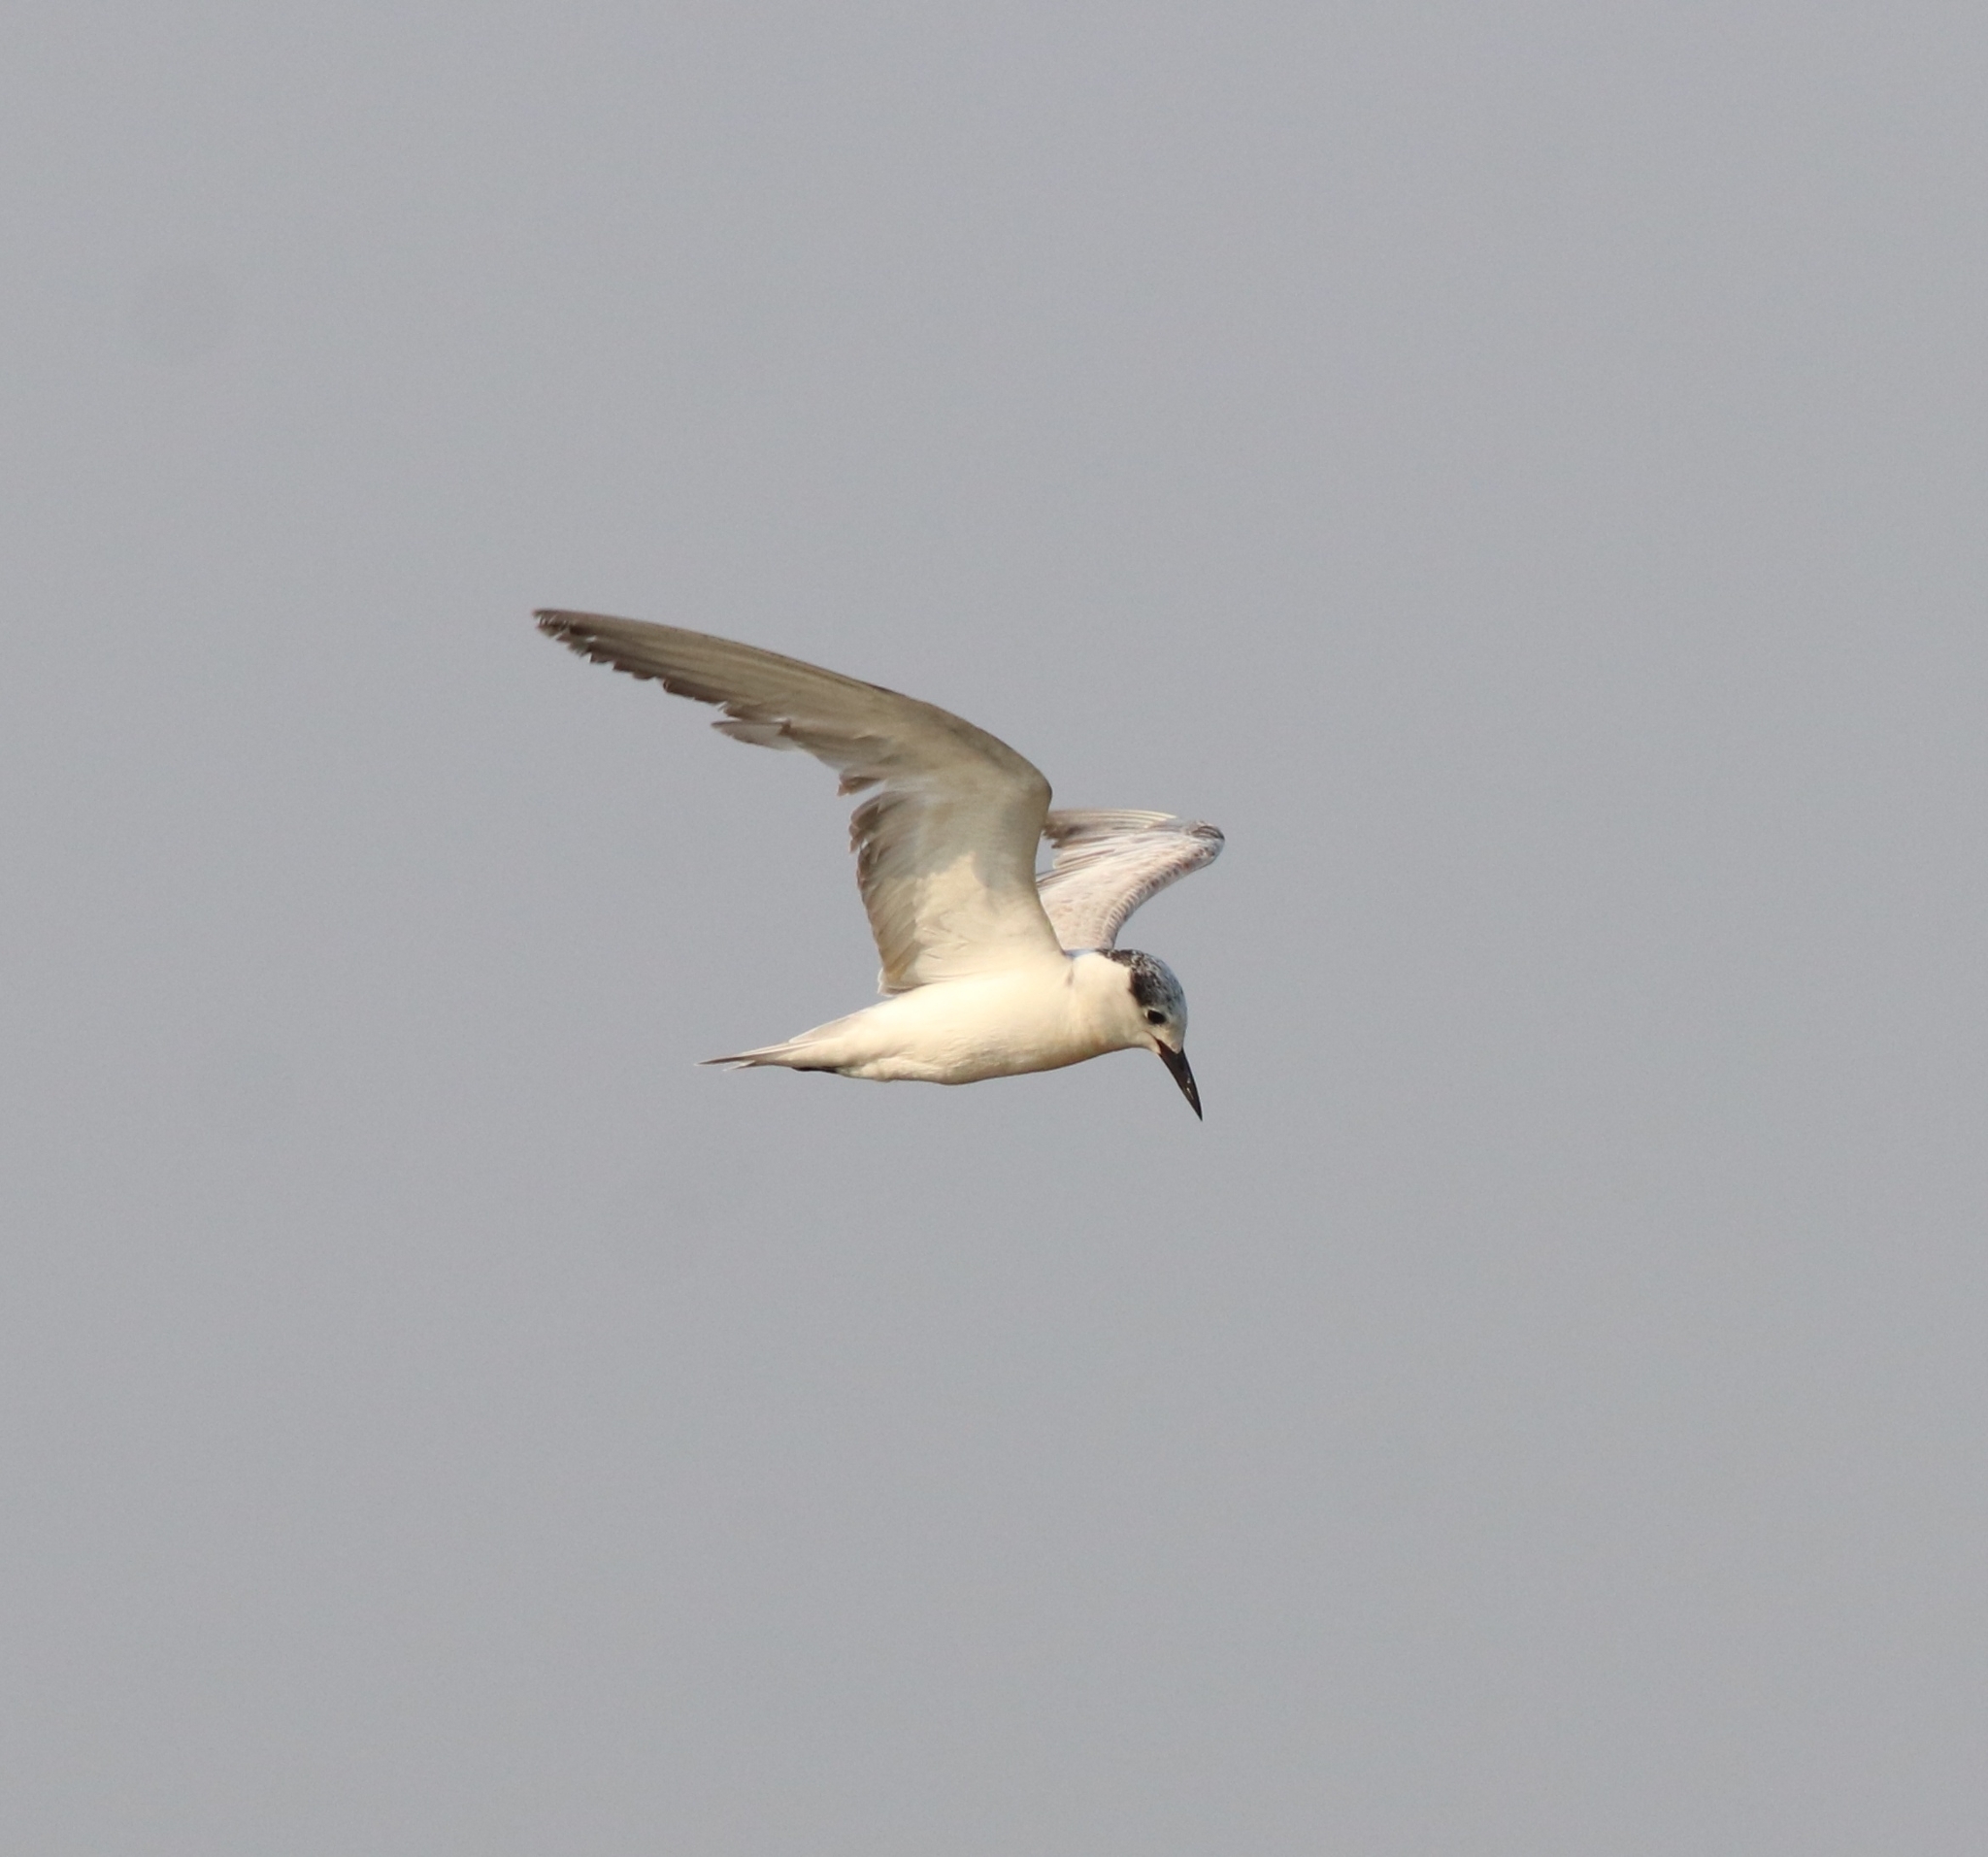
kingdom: Animalia
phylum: Chordata
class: Aves
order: Charadriiformes
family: Laridae
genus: Chlidonias
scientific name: Chlidonias hybrida
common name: Whiskered tern
